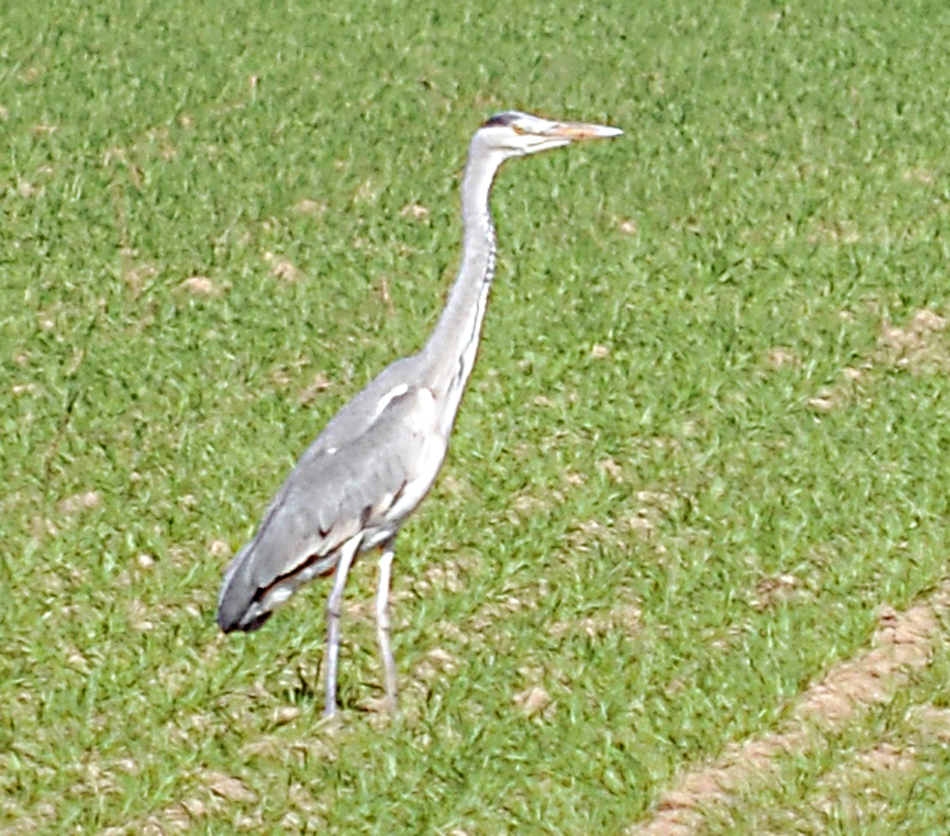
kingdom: Animalia
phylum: Chordata
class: Aves
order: Pelecaniformes
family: Ardeidae
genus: Ardea
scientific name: Ardea cinerea
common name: Grey heron
